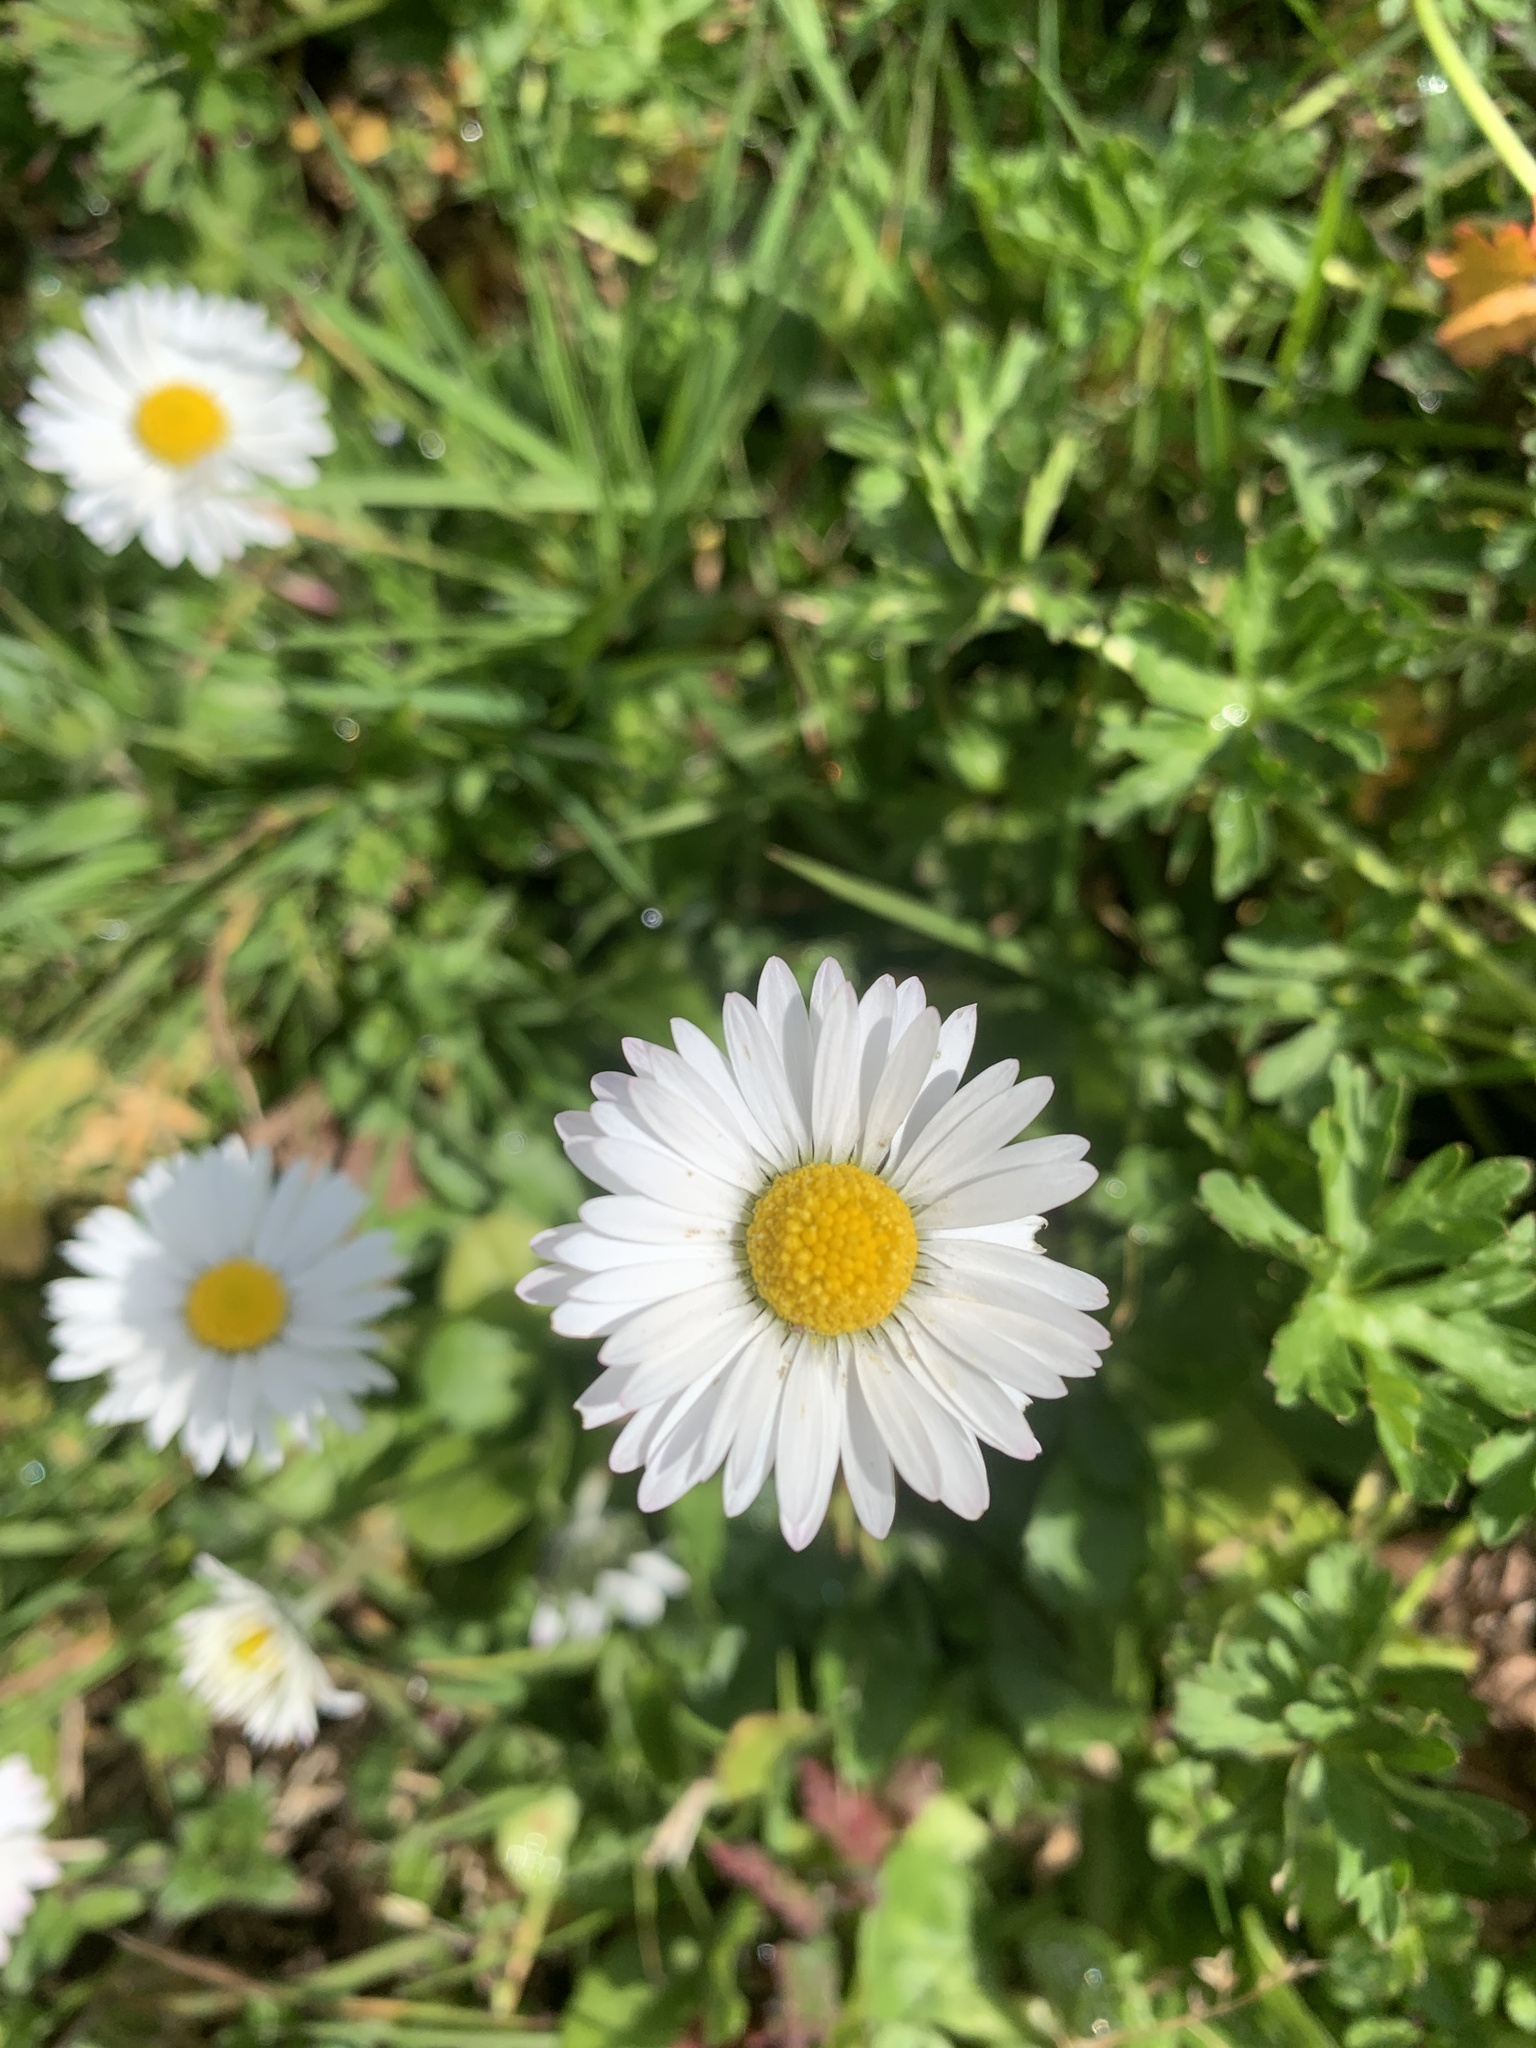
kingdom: Plantae
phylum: Tracheophyta
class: Magnoliopsida
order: Asterales
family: Asteraceae
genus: Bellis
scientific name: Bellis perennis
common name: Lawndaisy
